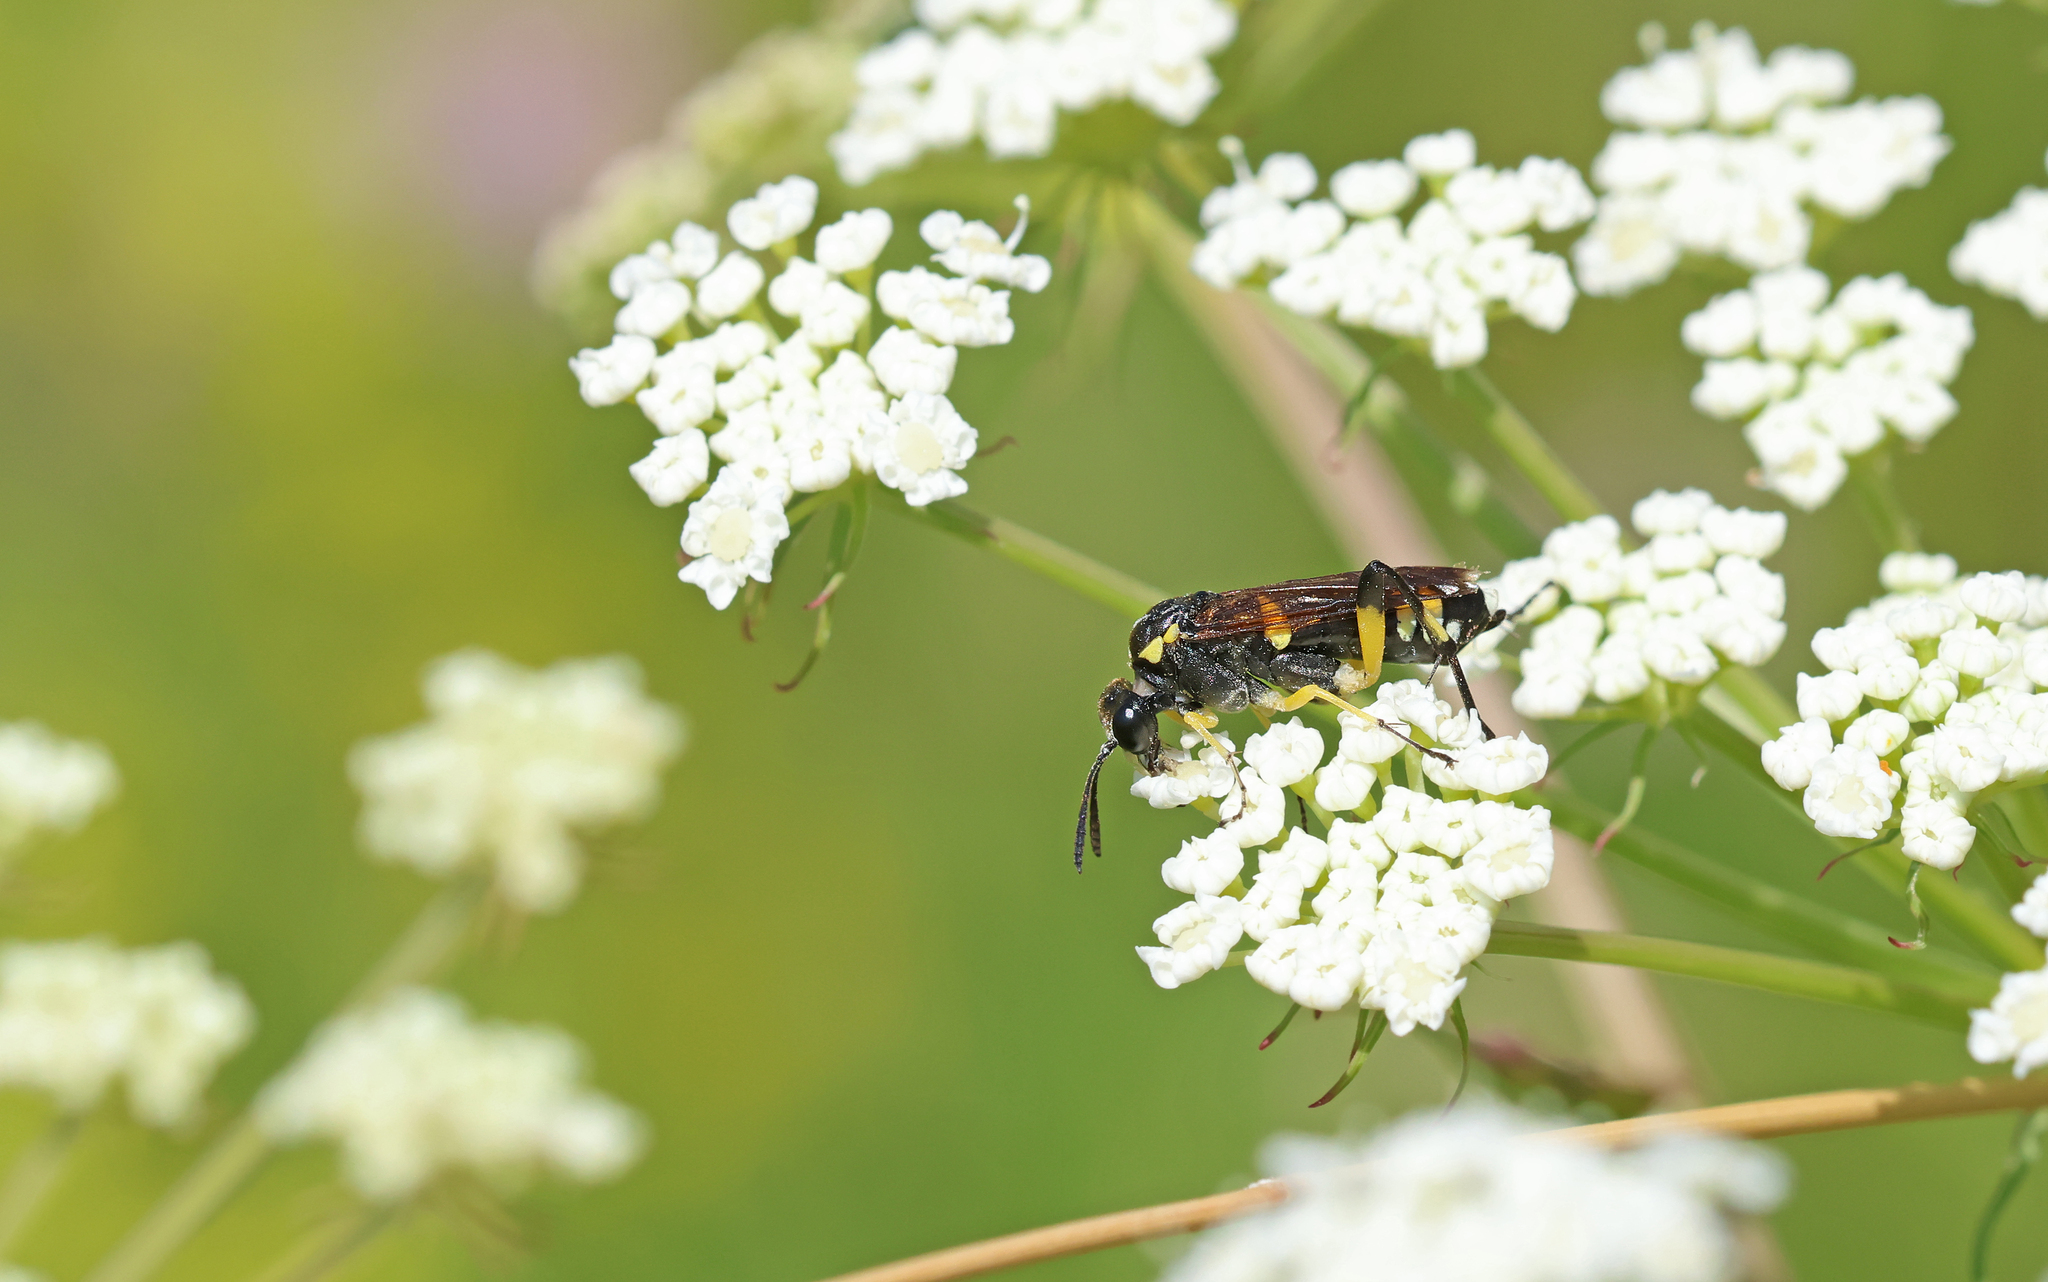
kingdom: Animalia
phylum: Arthropoda
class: Insecta
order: Hymenoptera
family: Tenthredinidae
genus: Macrophya
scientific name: Macrophya montana
